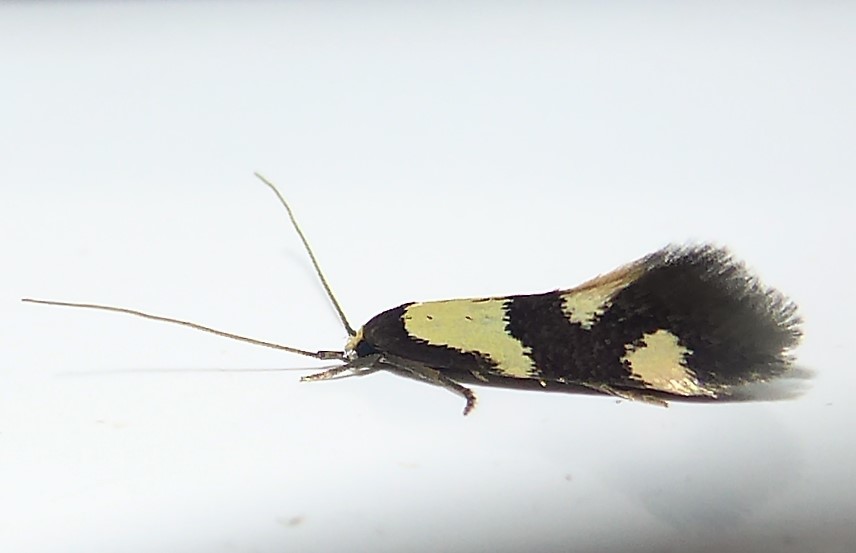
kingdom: Animalia
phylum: Arthropoda
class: Insecta
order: Lepidoptera
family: Tineidae
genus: Opogona
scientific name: Opogona comptella
